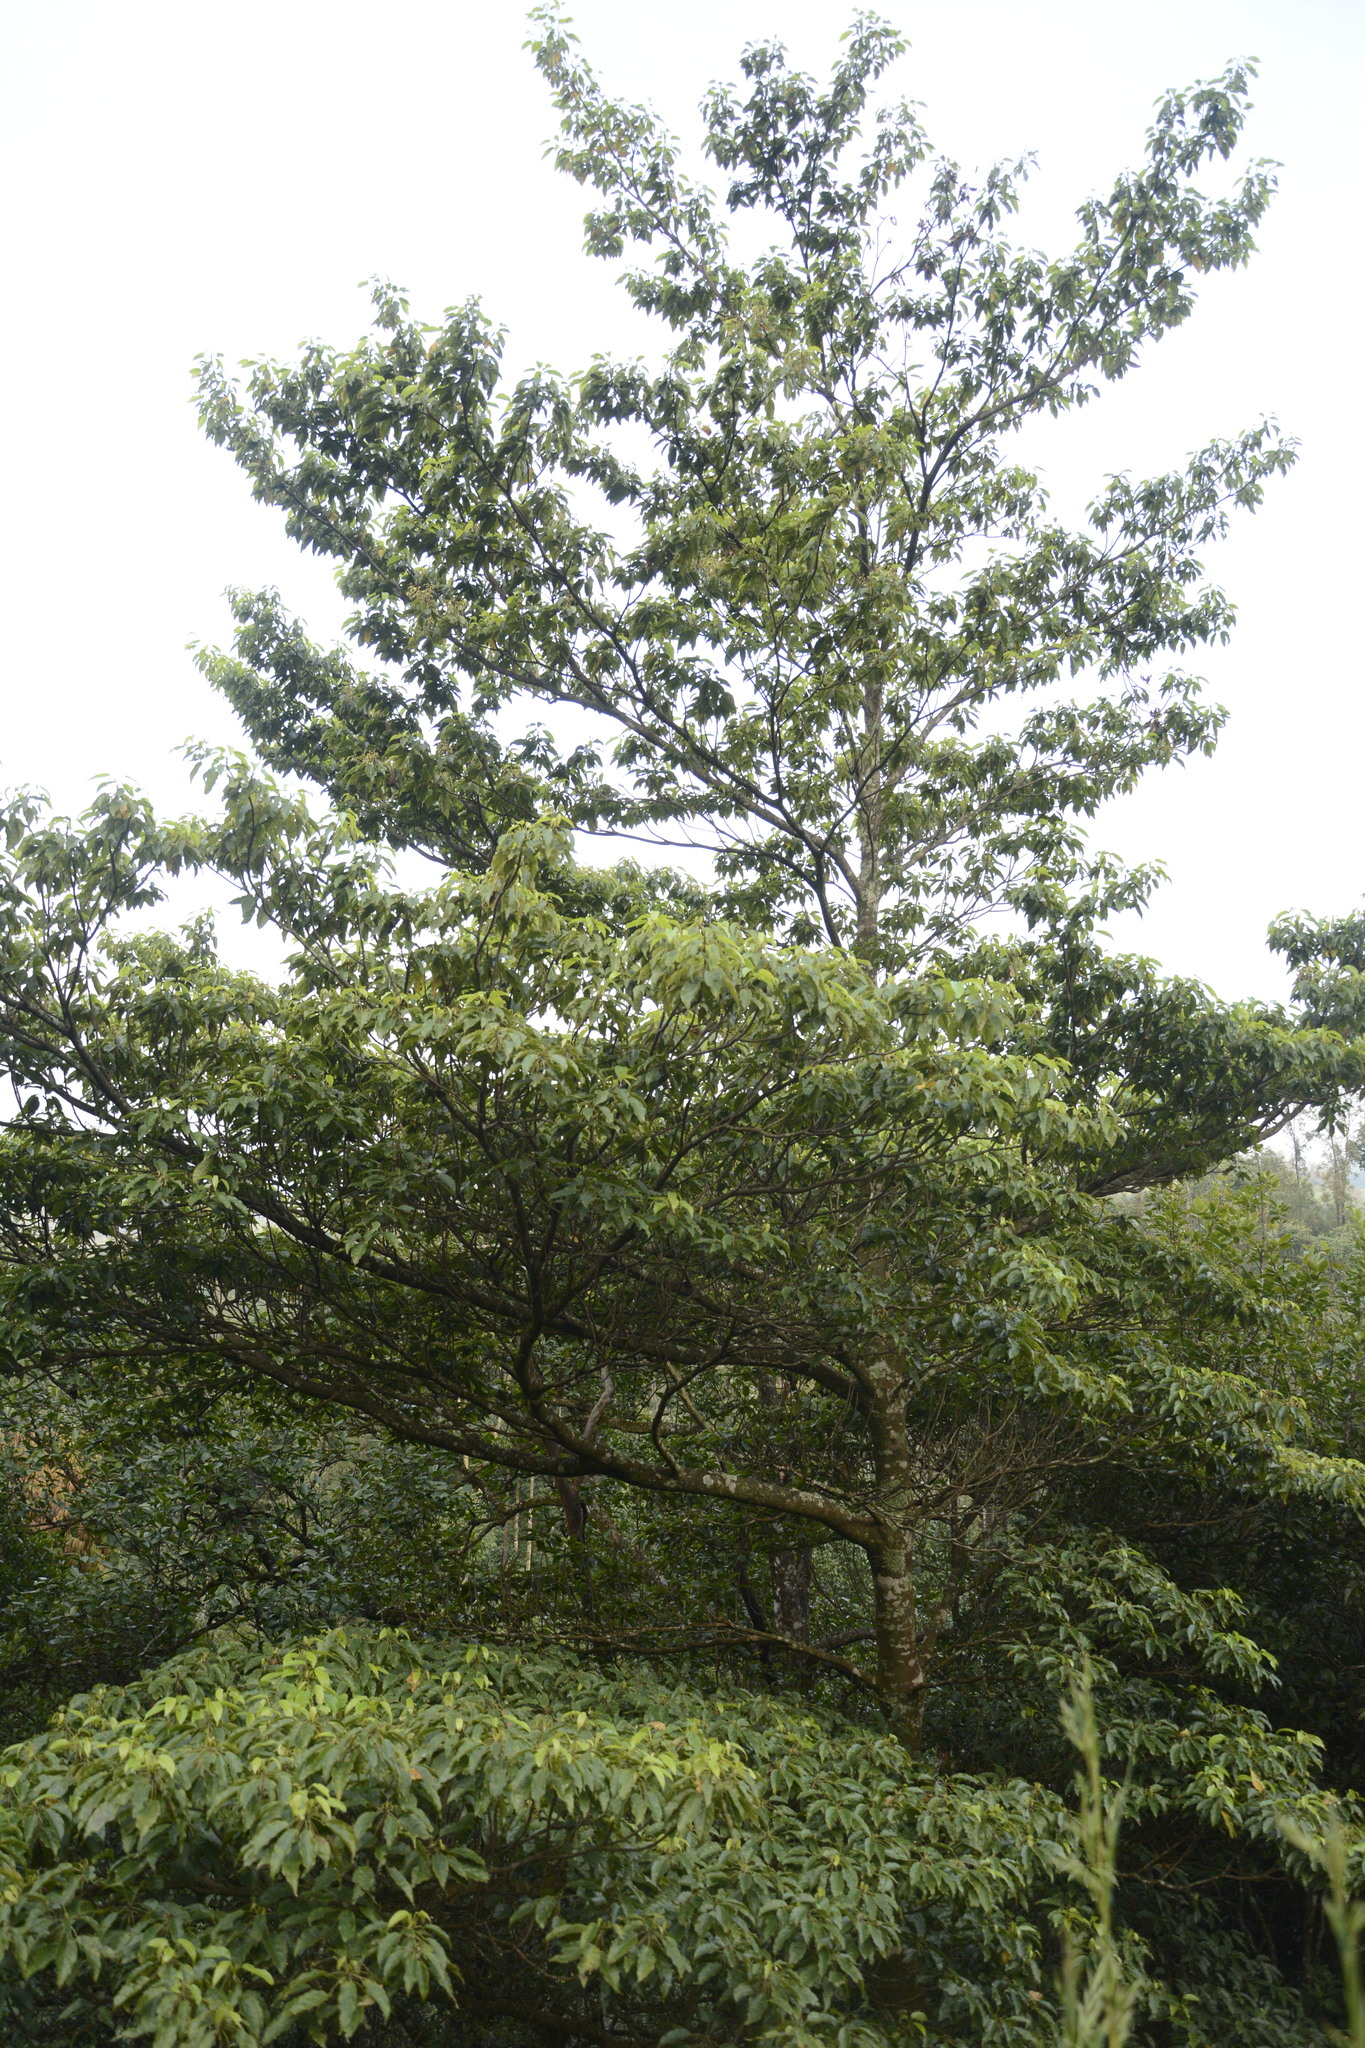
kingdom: Plantae
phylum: Tracheophyta
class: Magnoliopsida
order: Oxalidales
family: Elaeocarpaceae
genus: Elaeocarpus
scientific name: Elaeocarpus munroii
